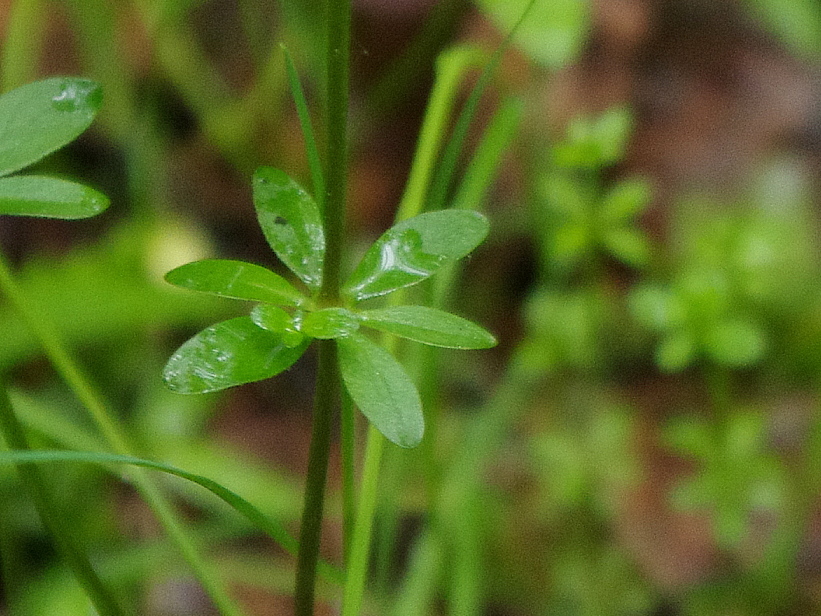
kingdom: Plantae
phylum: Tracheophyta
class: Magnoliopsida
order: Gentianales
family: Rubiaceae
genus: Galium
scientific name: Galium palustre
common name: Common marsh-bedstraw
